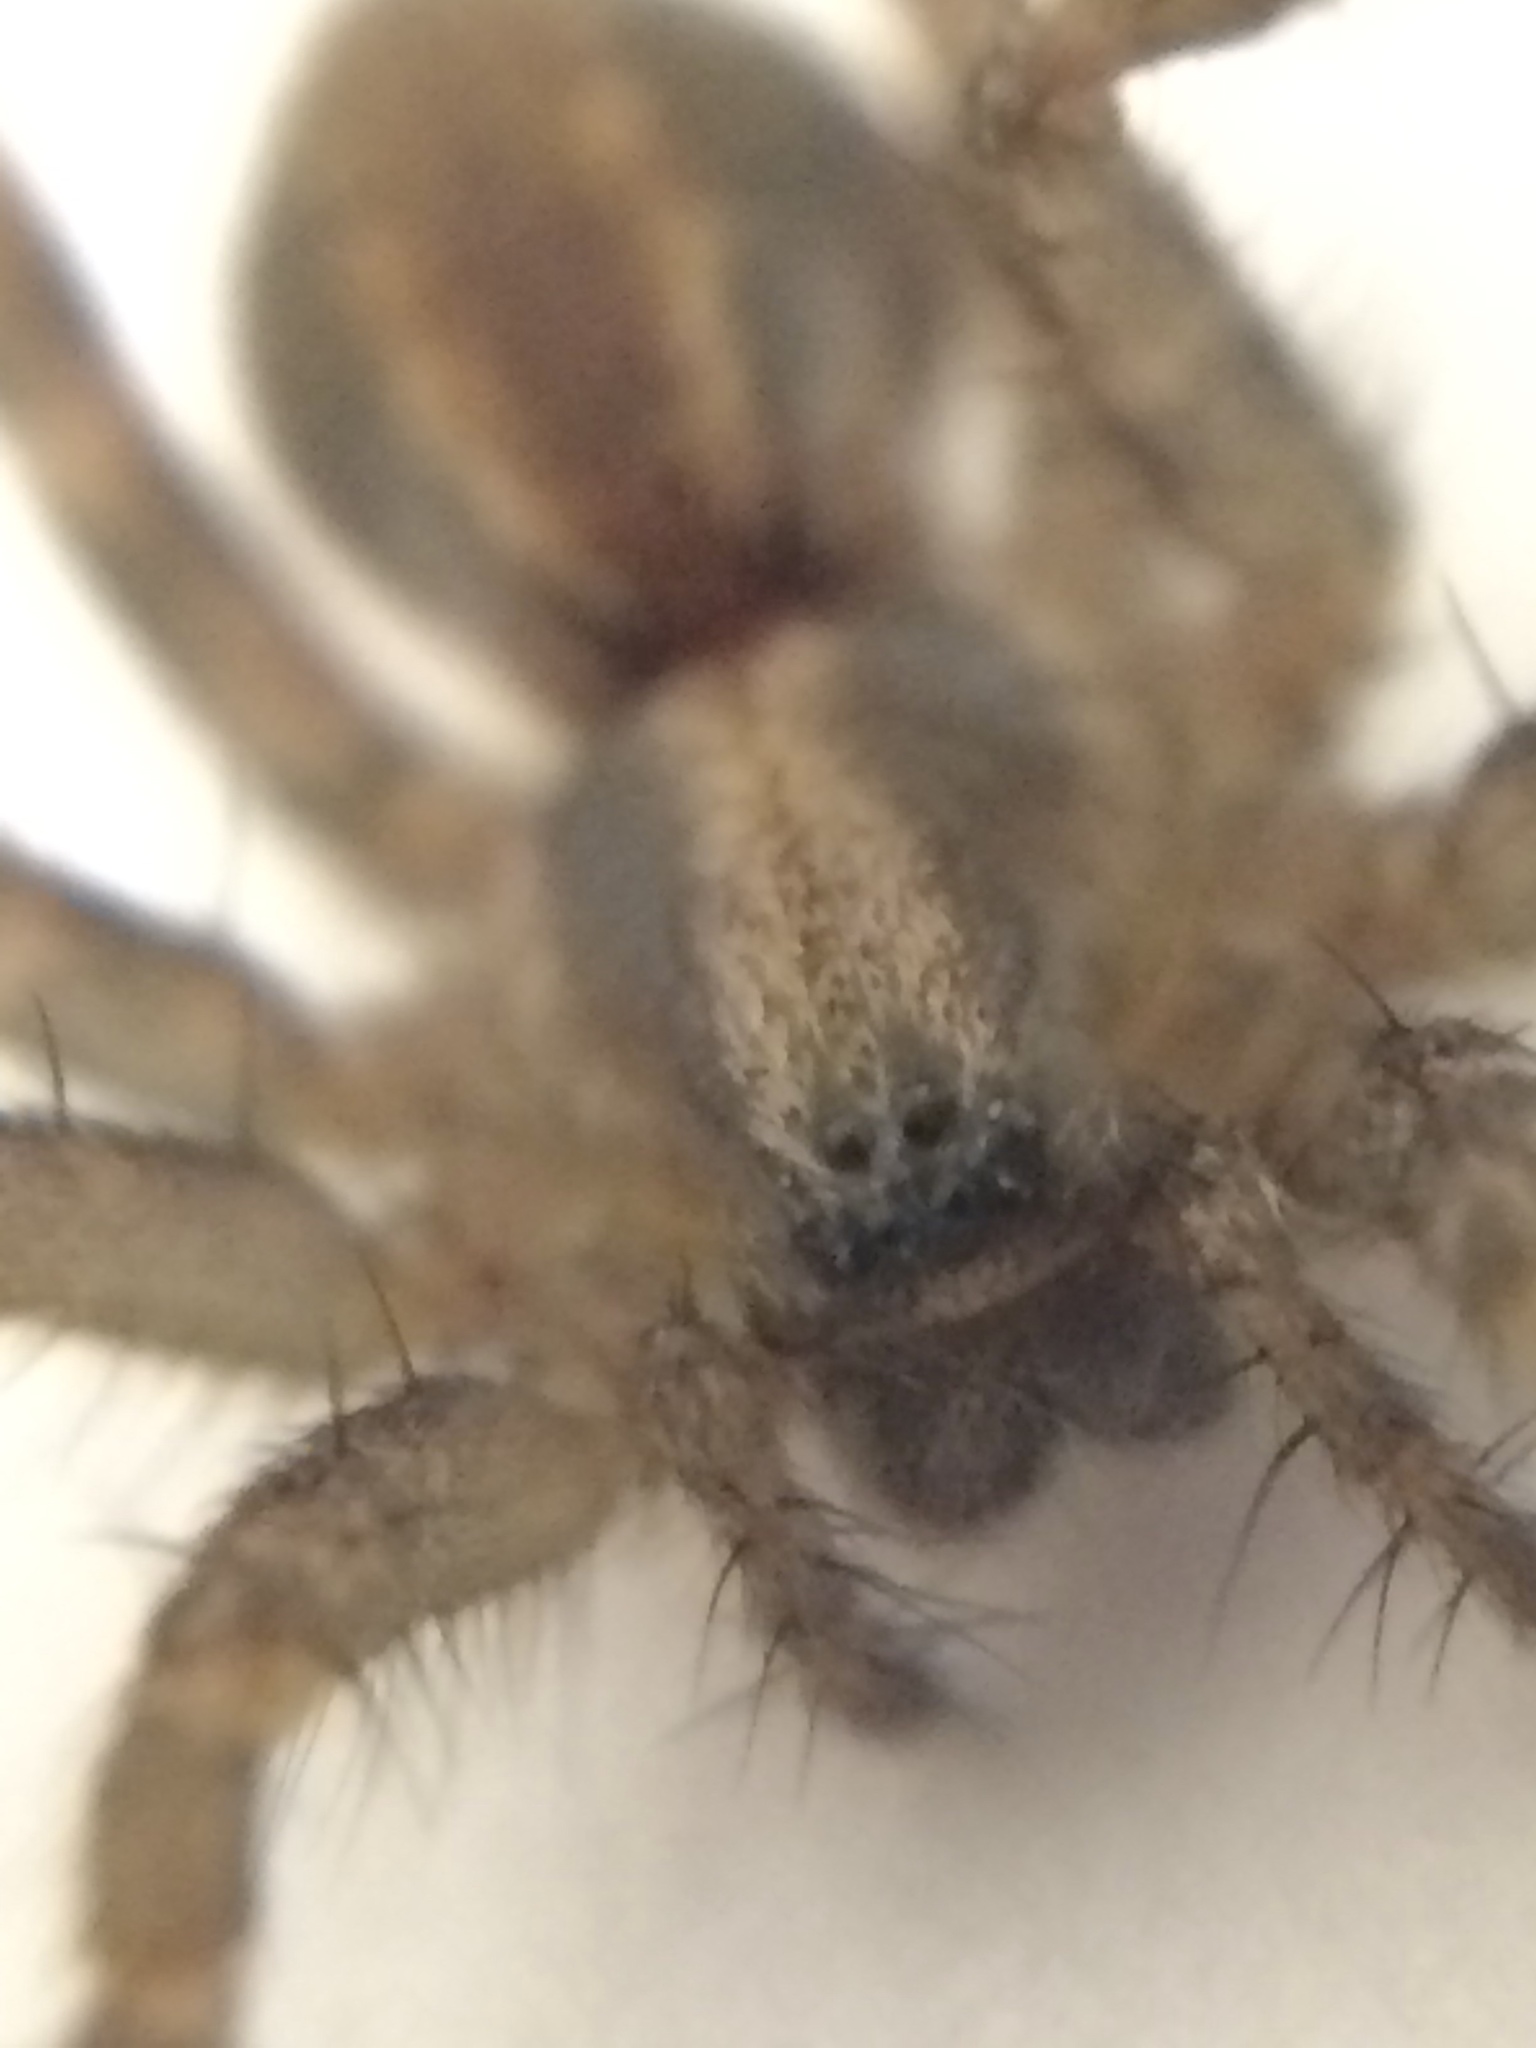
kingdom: Animalia
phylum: Arthropoda
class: Arachnida
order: Araneae
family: Agelenidae
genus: Hololena
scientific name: Hololena
